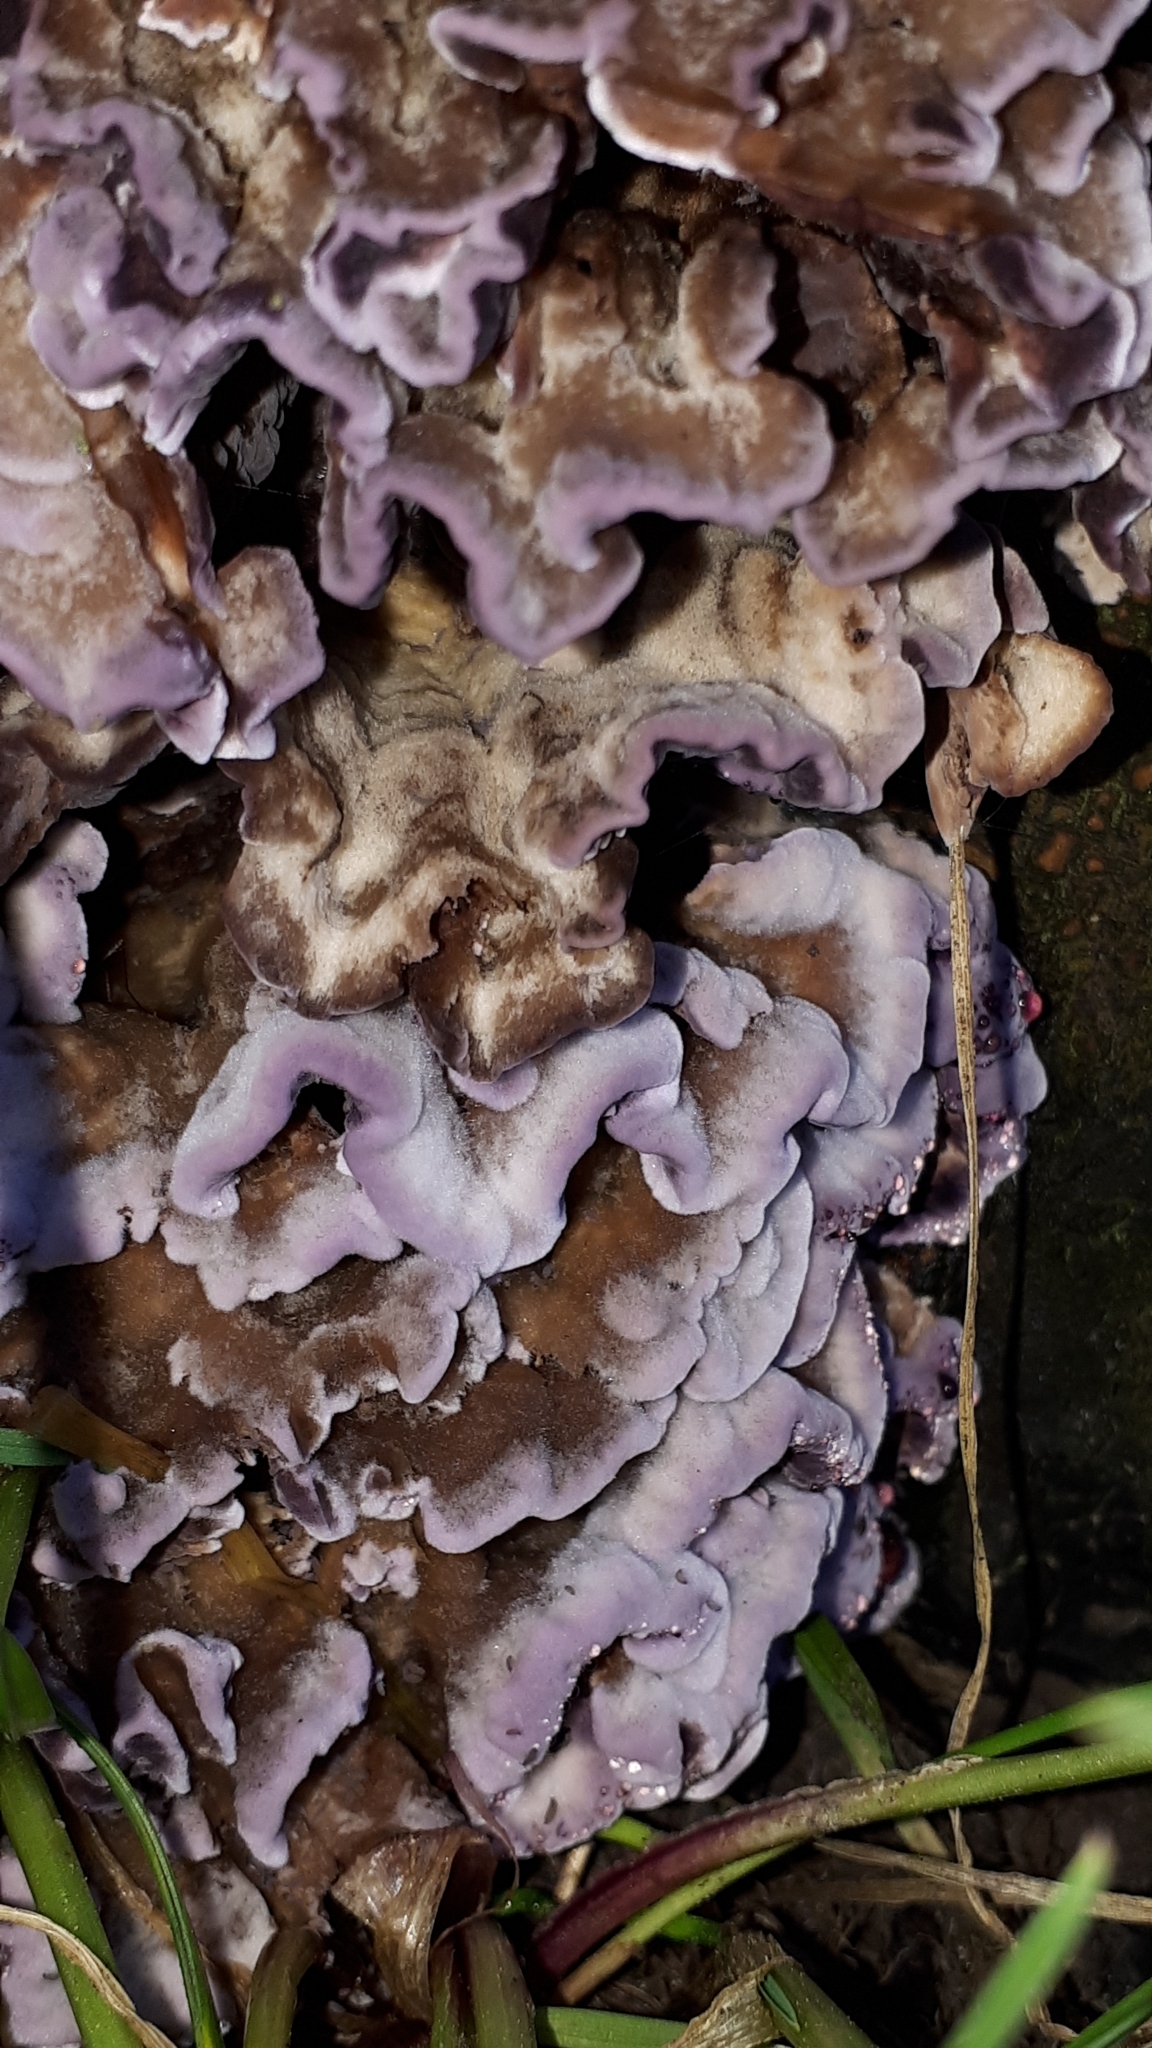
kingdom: Fungi
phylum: Basidiomycota
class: Agaricomycetes
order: Agaricales
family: Cyphellaceae
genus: Chondrostereum
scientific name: Chondrostereum purpureum
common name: Silver leaf disease
